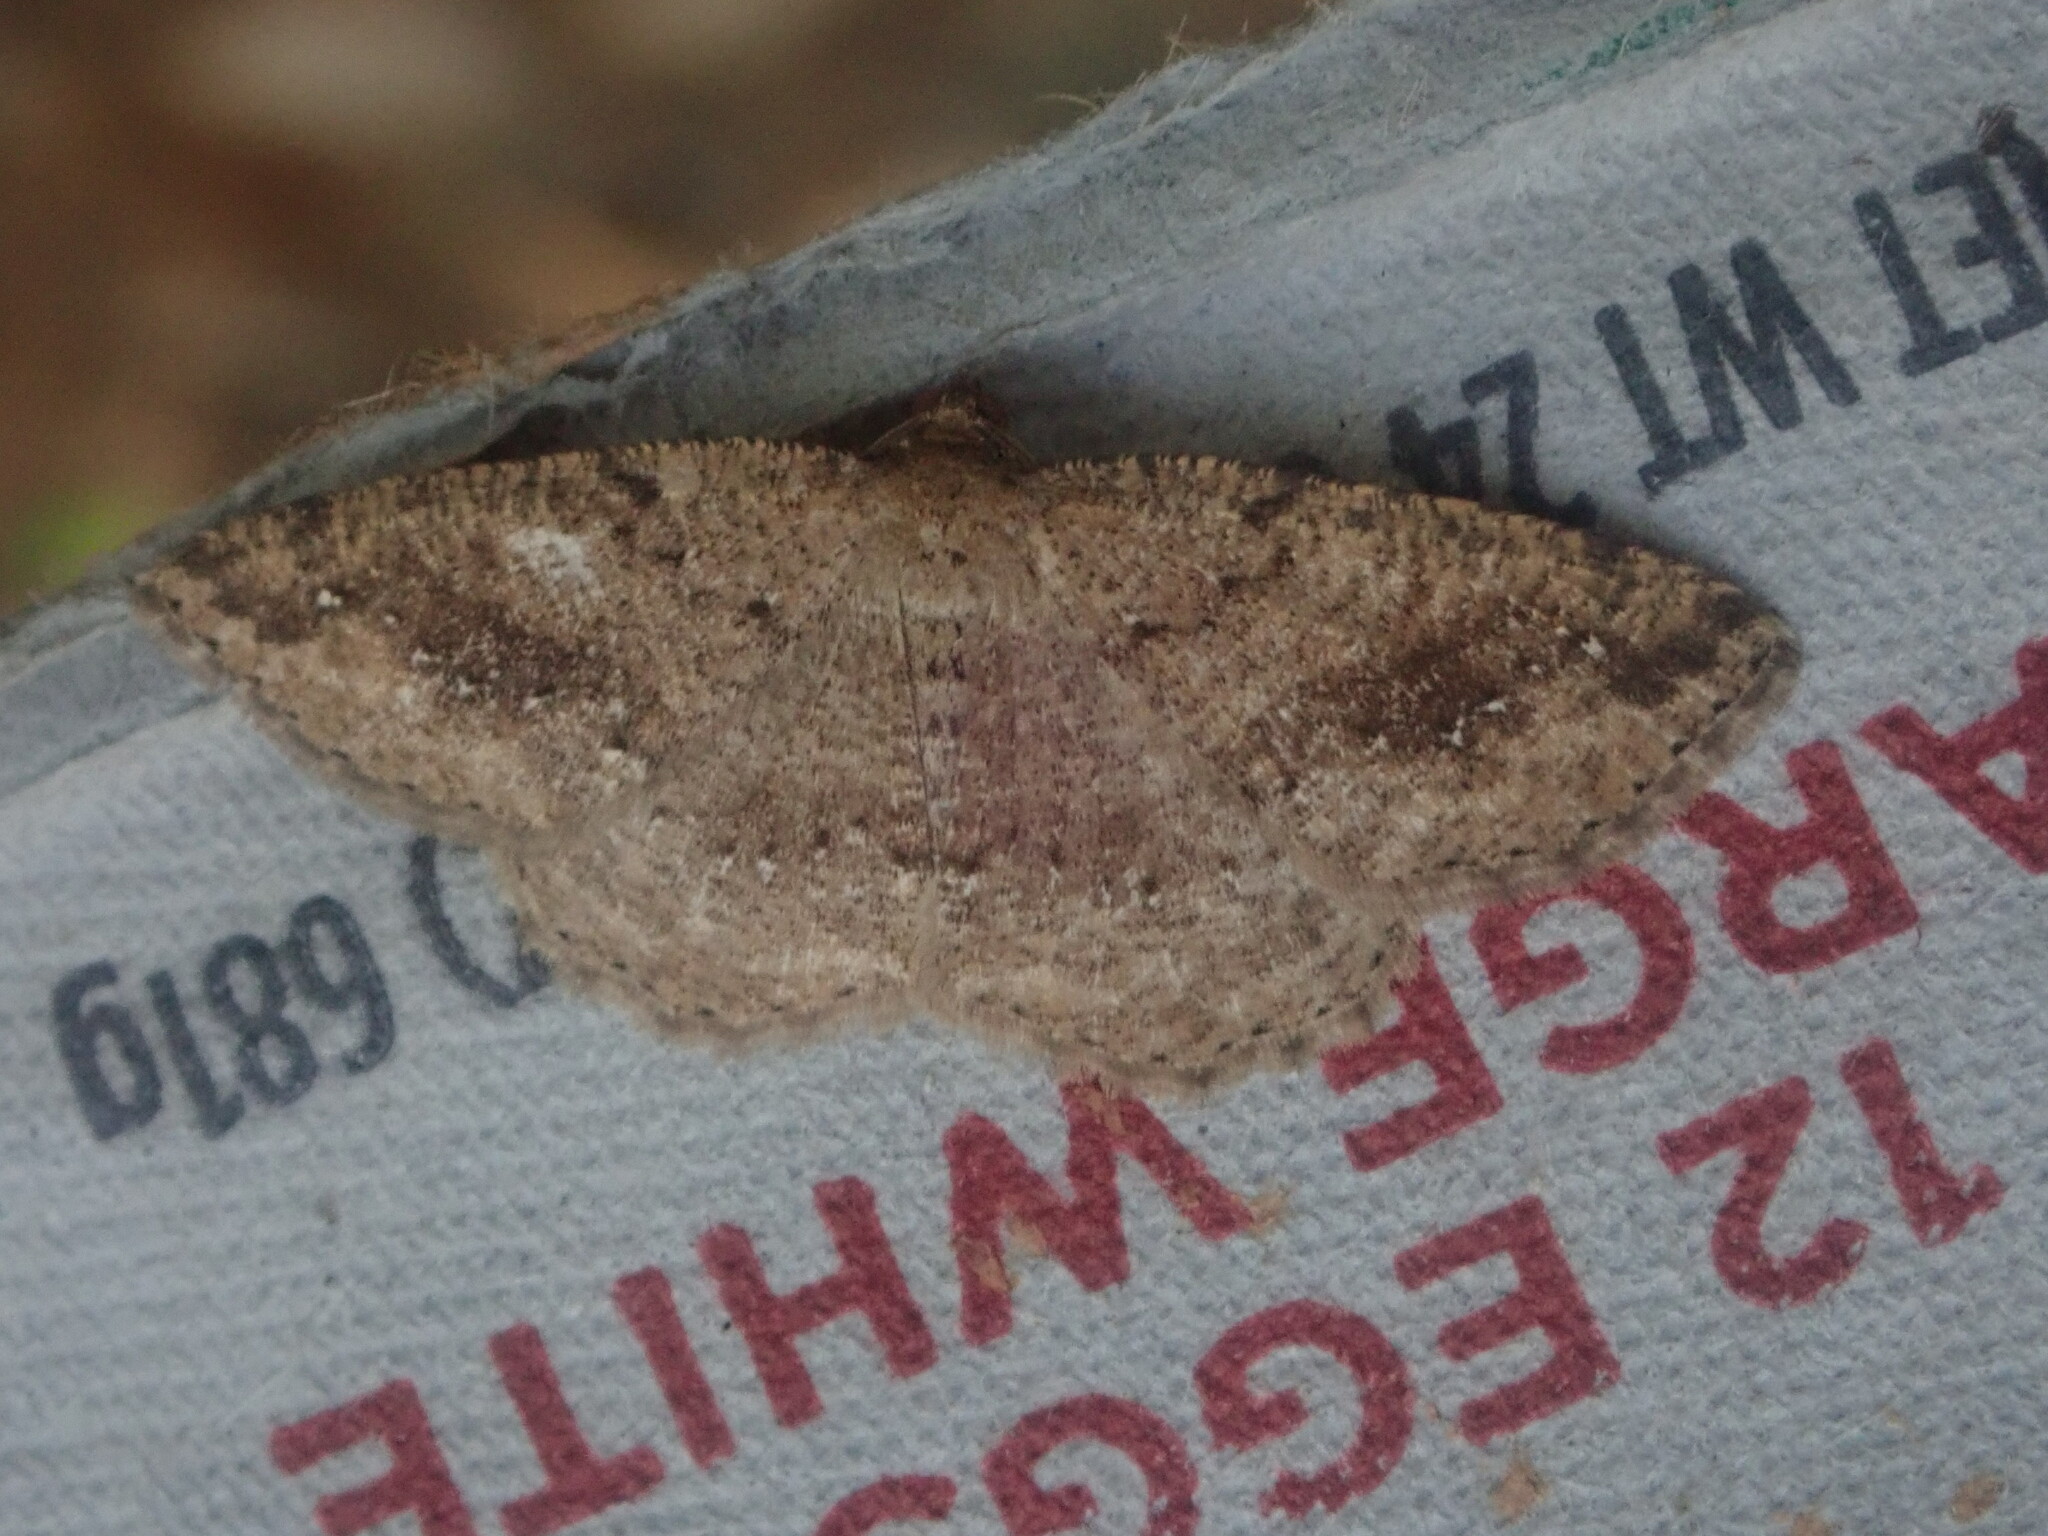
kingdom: Animalia
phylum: Arthropoda
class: Insecta
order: Lepidoptera
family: Geometridae
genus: Homochlodes
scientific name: Homochlodes fritillaria
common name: Pale homochlodes
